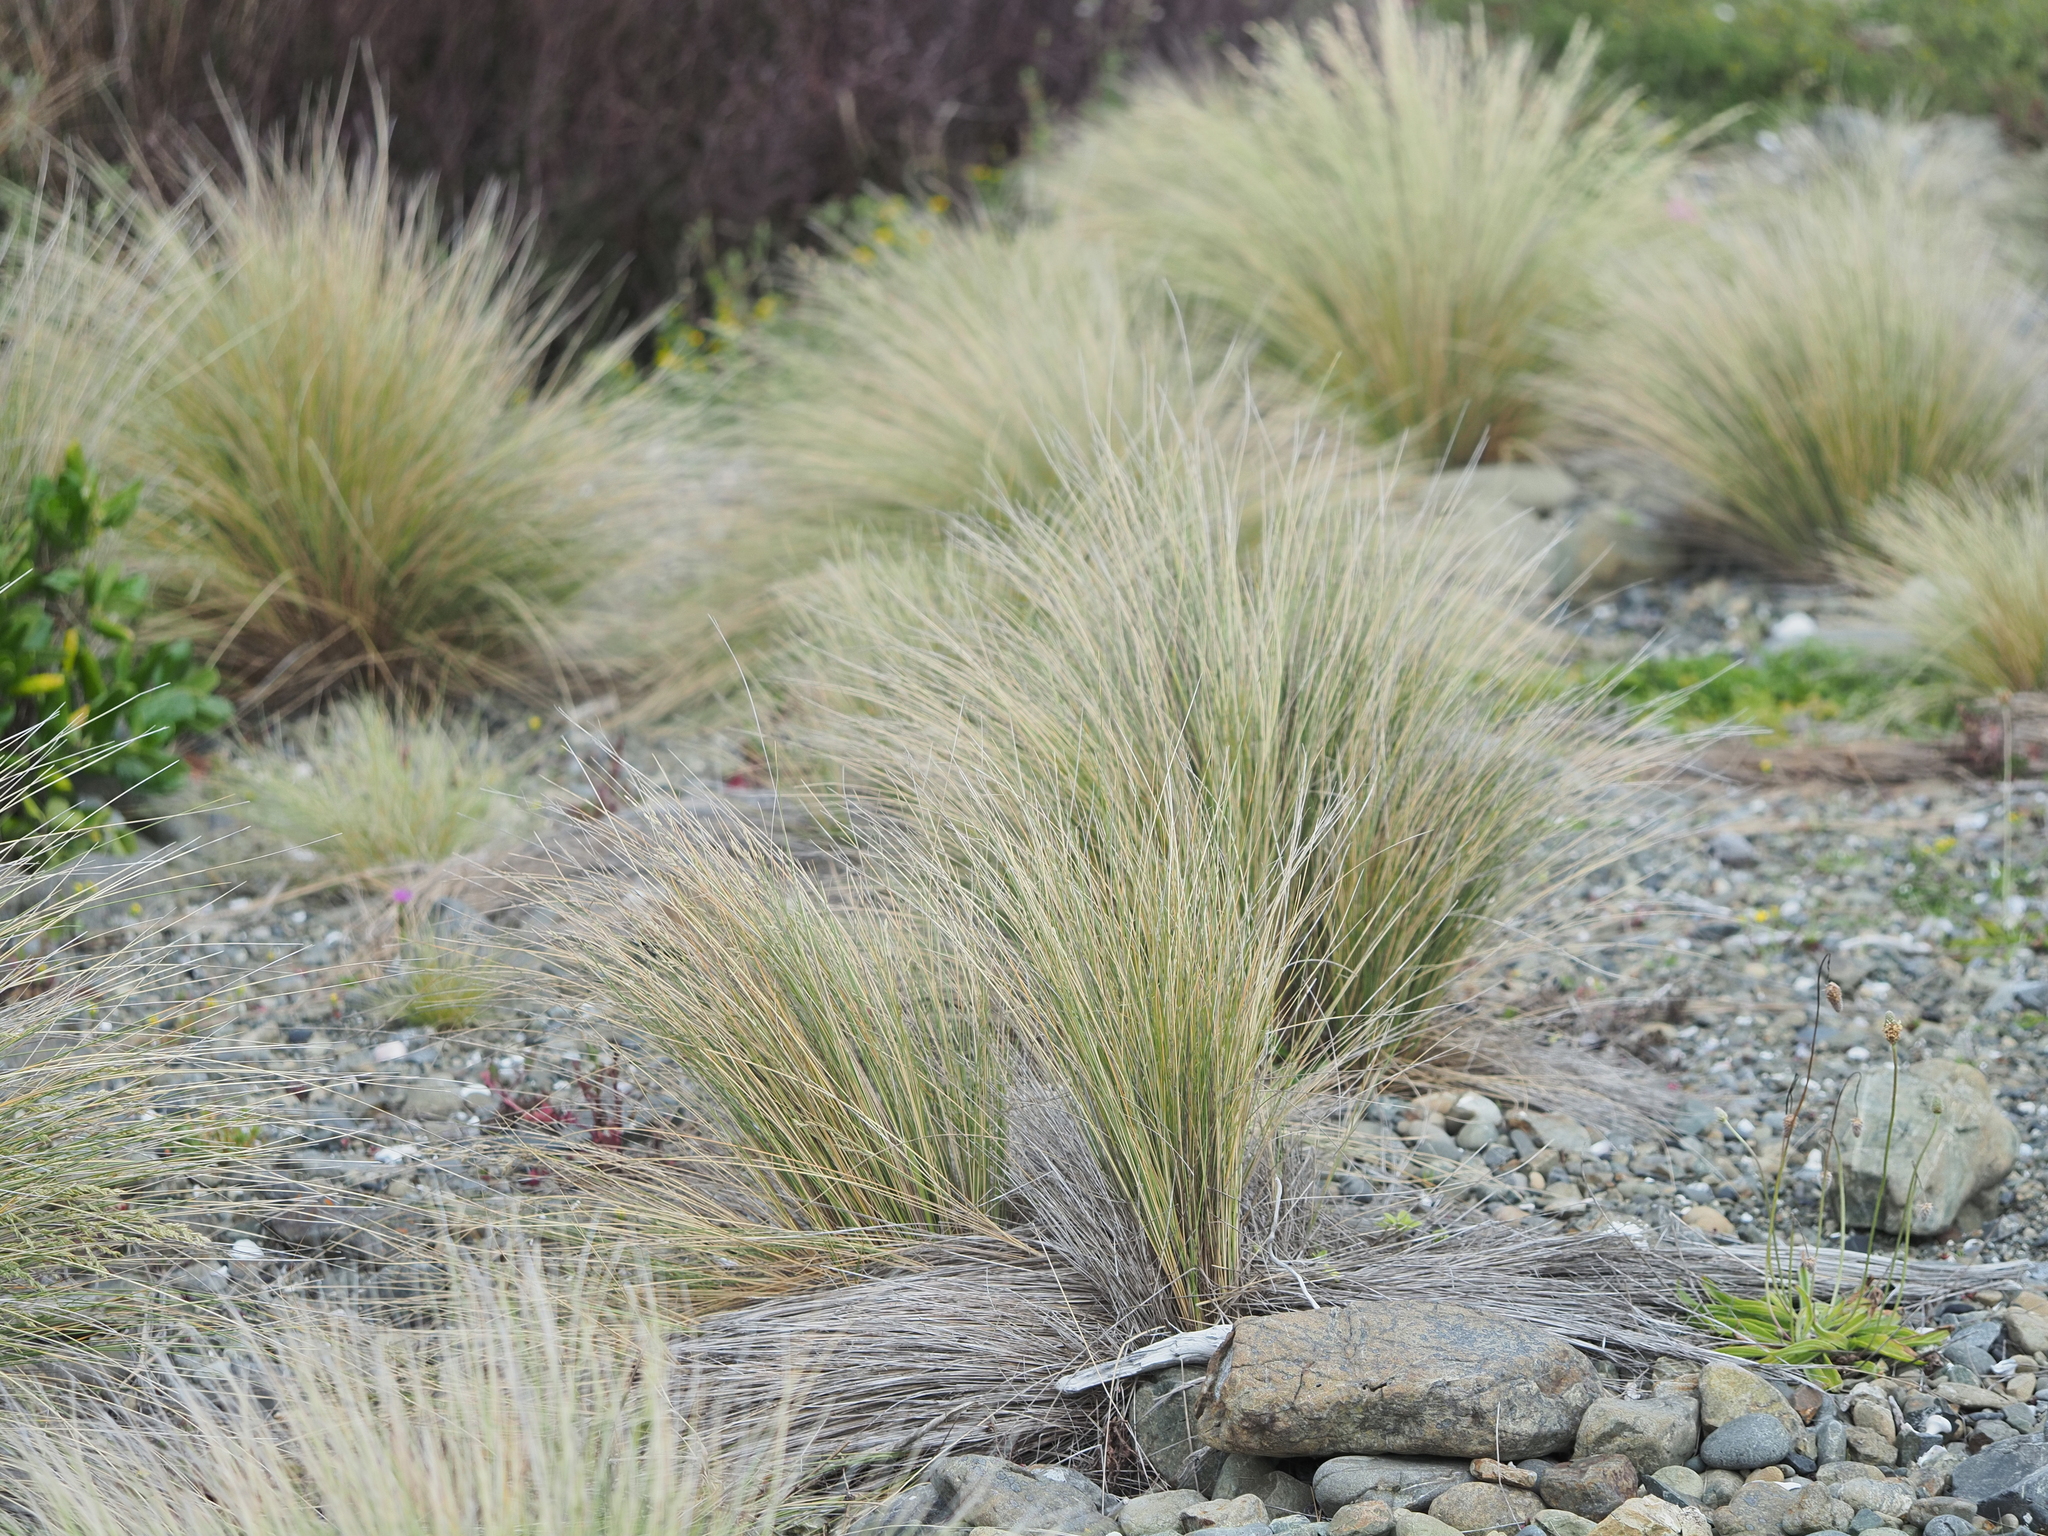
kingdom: Plantae
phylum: Tracheophyta
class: Liliopsida
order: Poales
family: Poaceae
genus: Poa
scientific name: Poa cita
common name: Silver tussock
